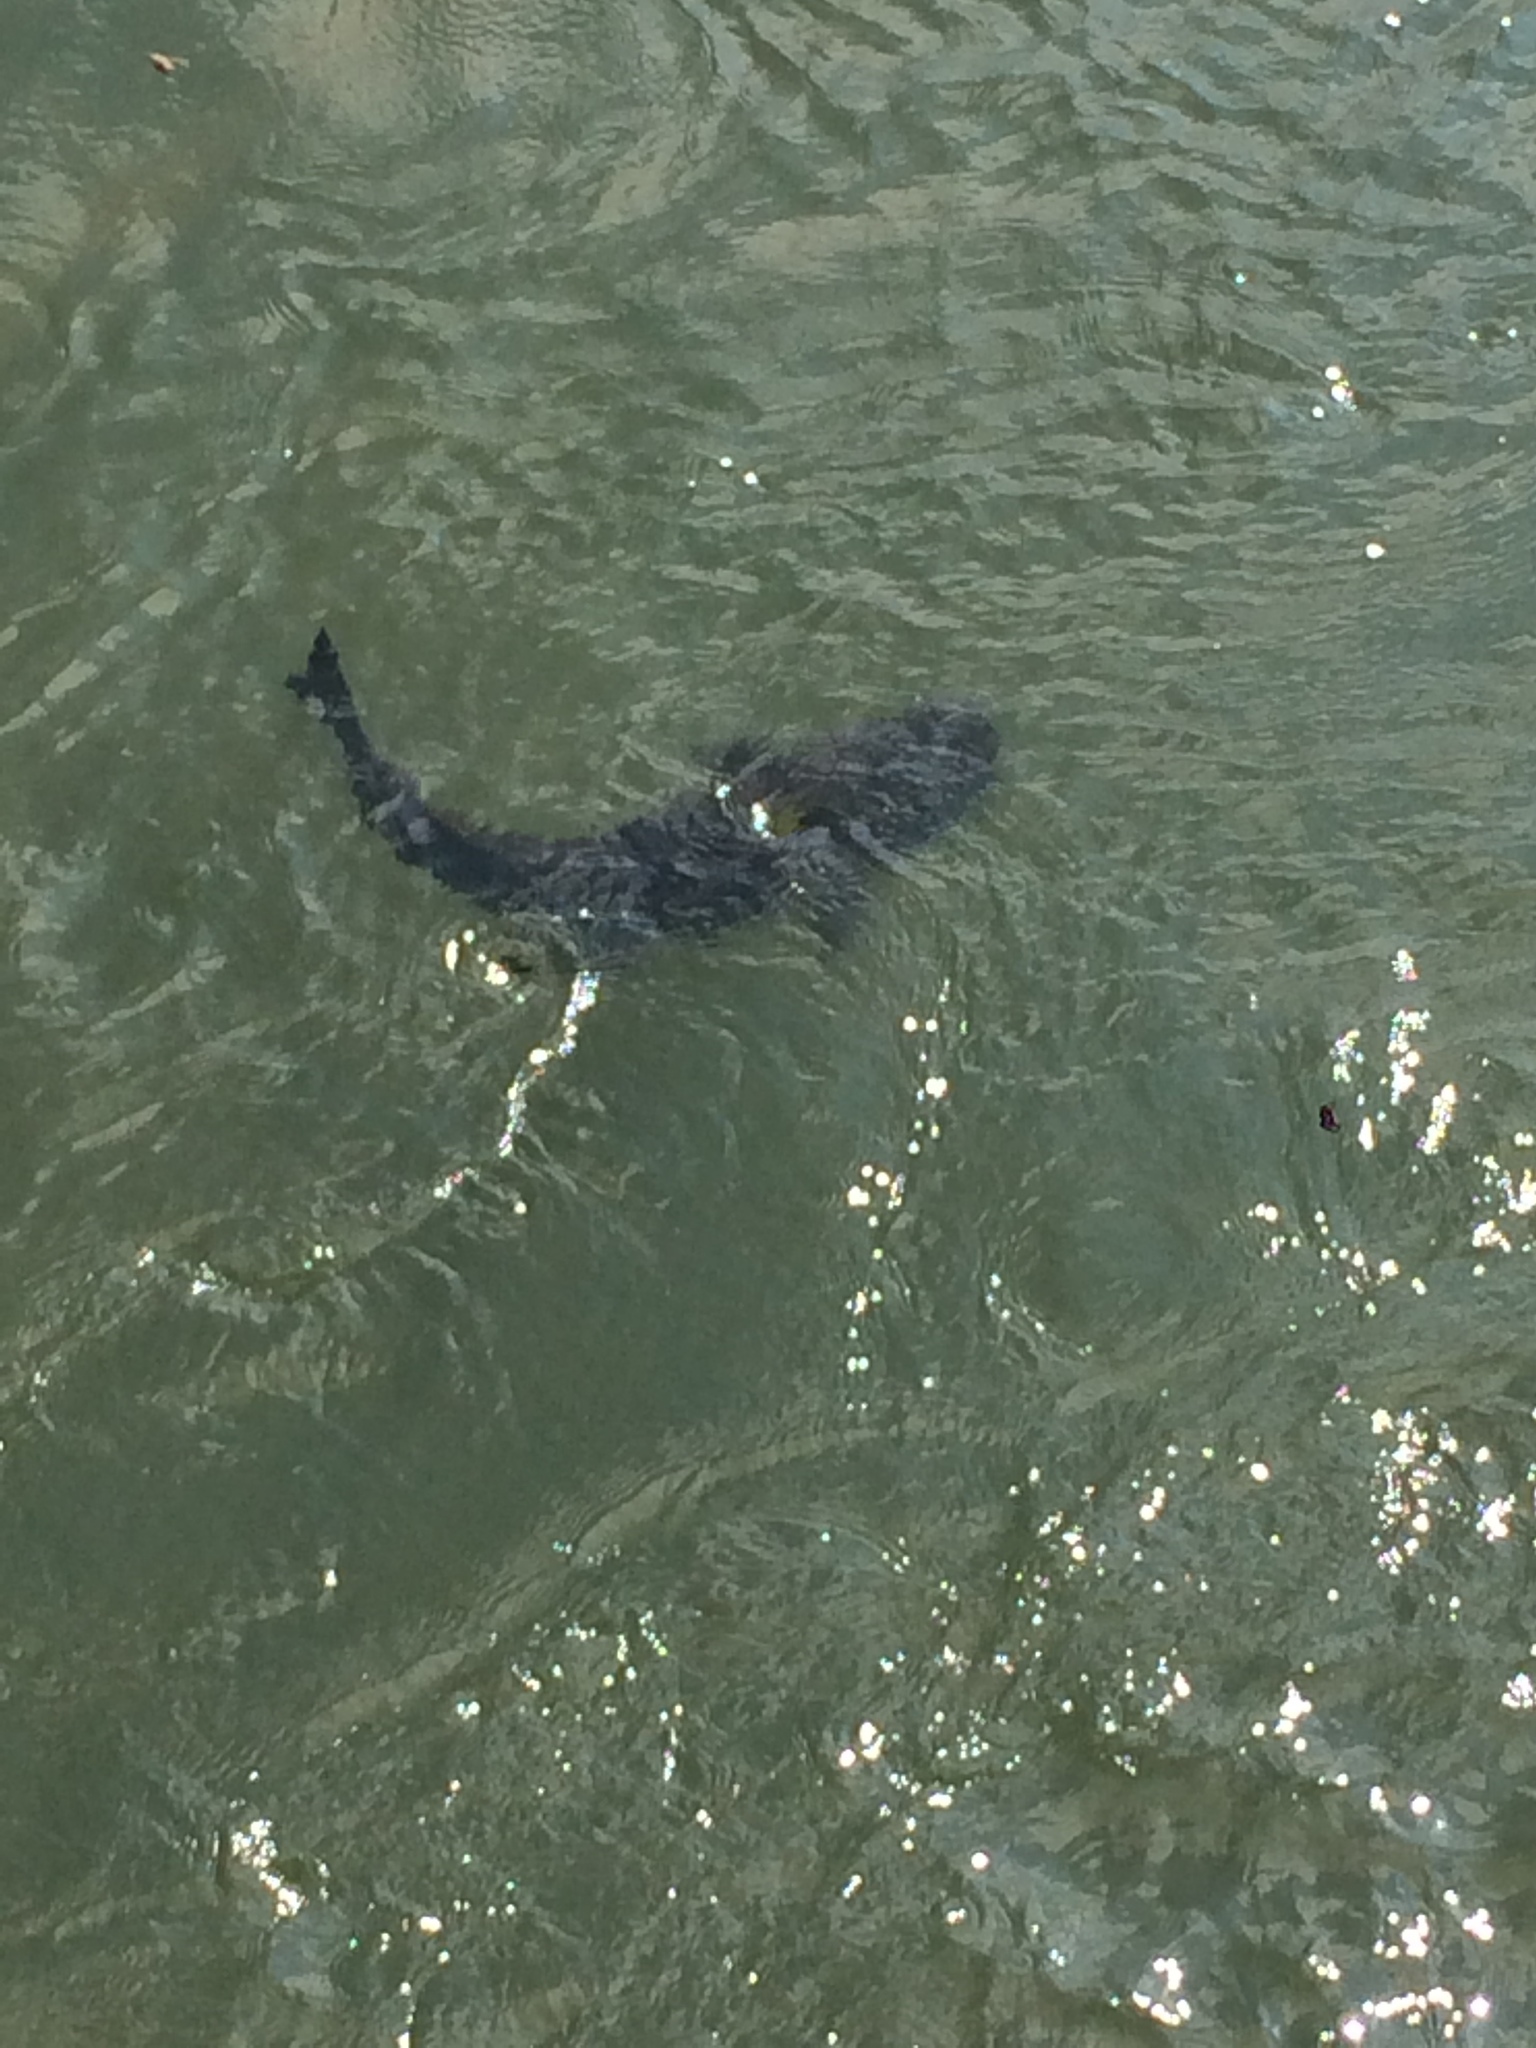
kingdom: Animalia
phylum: Chordata
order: Siluriformes
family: Pimelodidae
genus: Steindachneridion
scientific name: Steindachneridion melanodermatum
